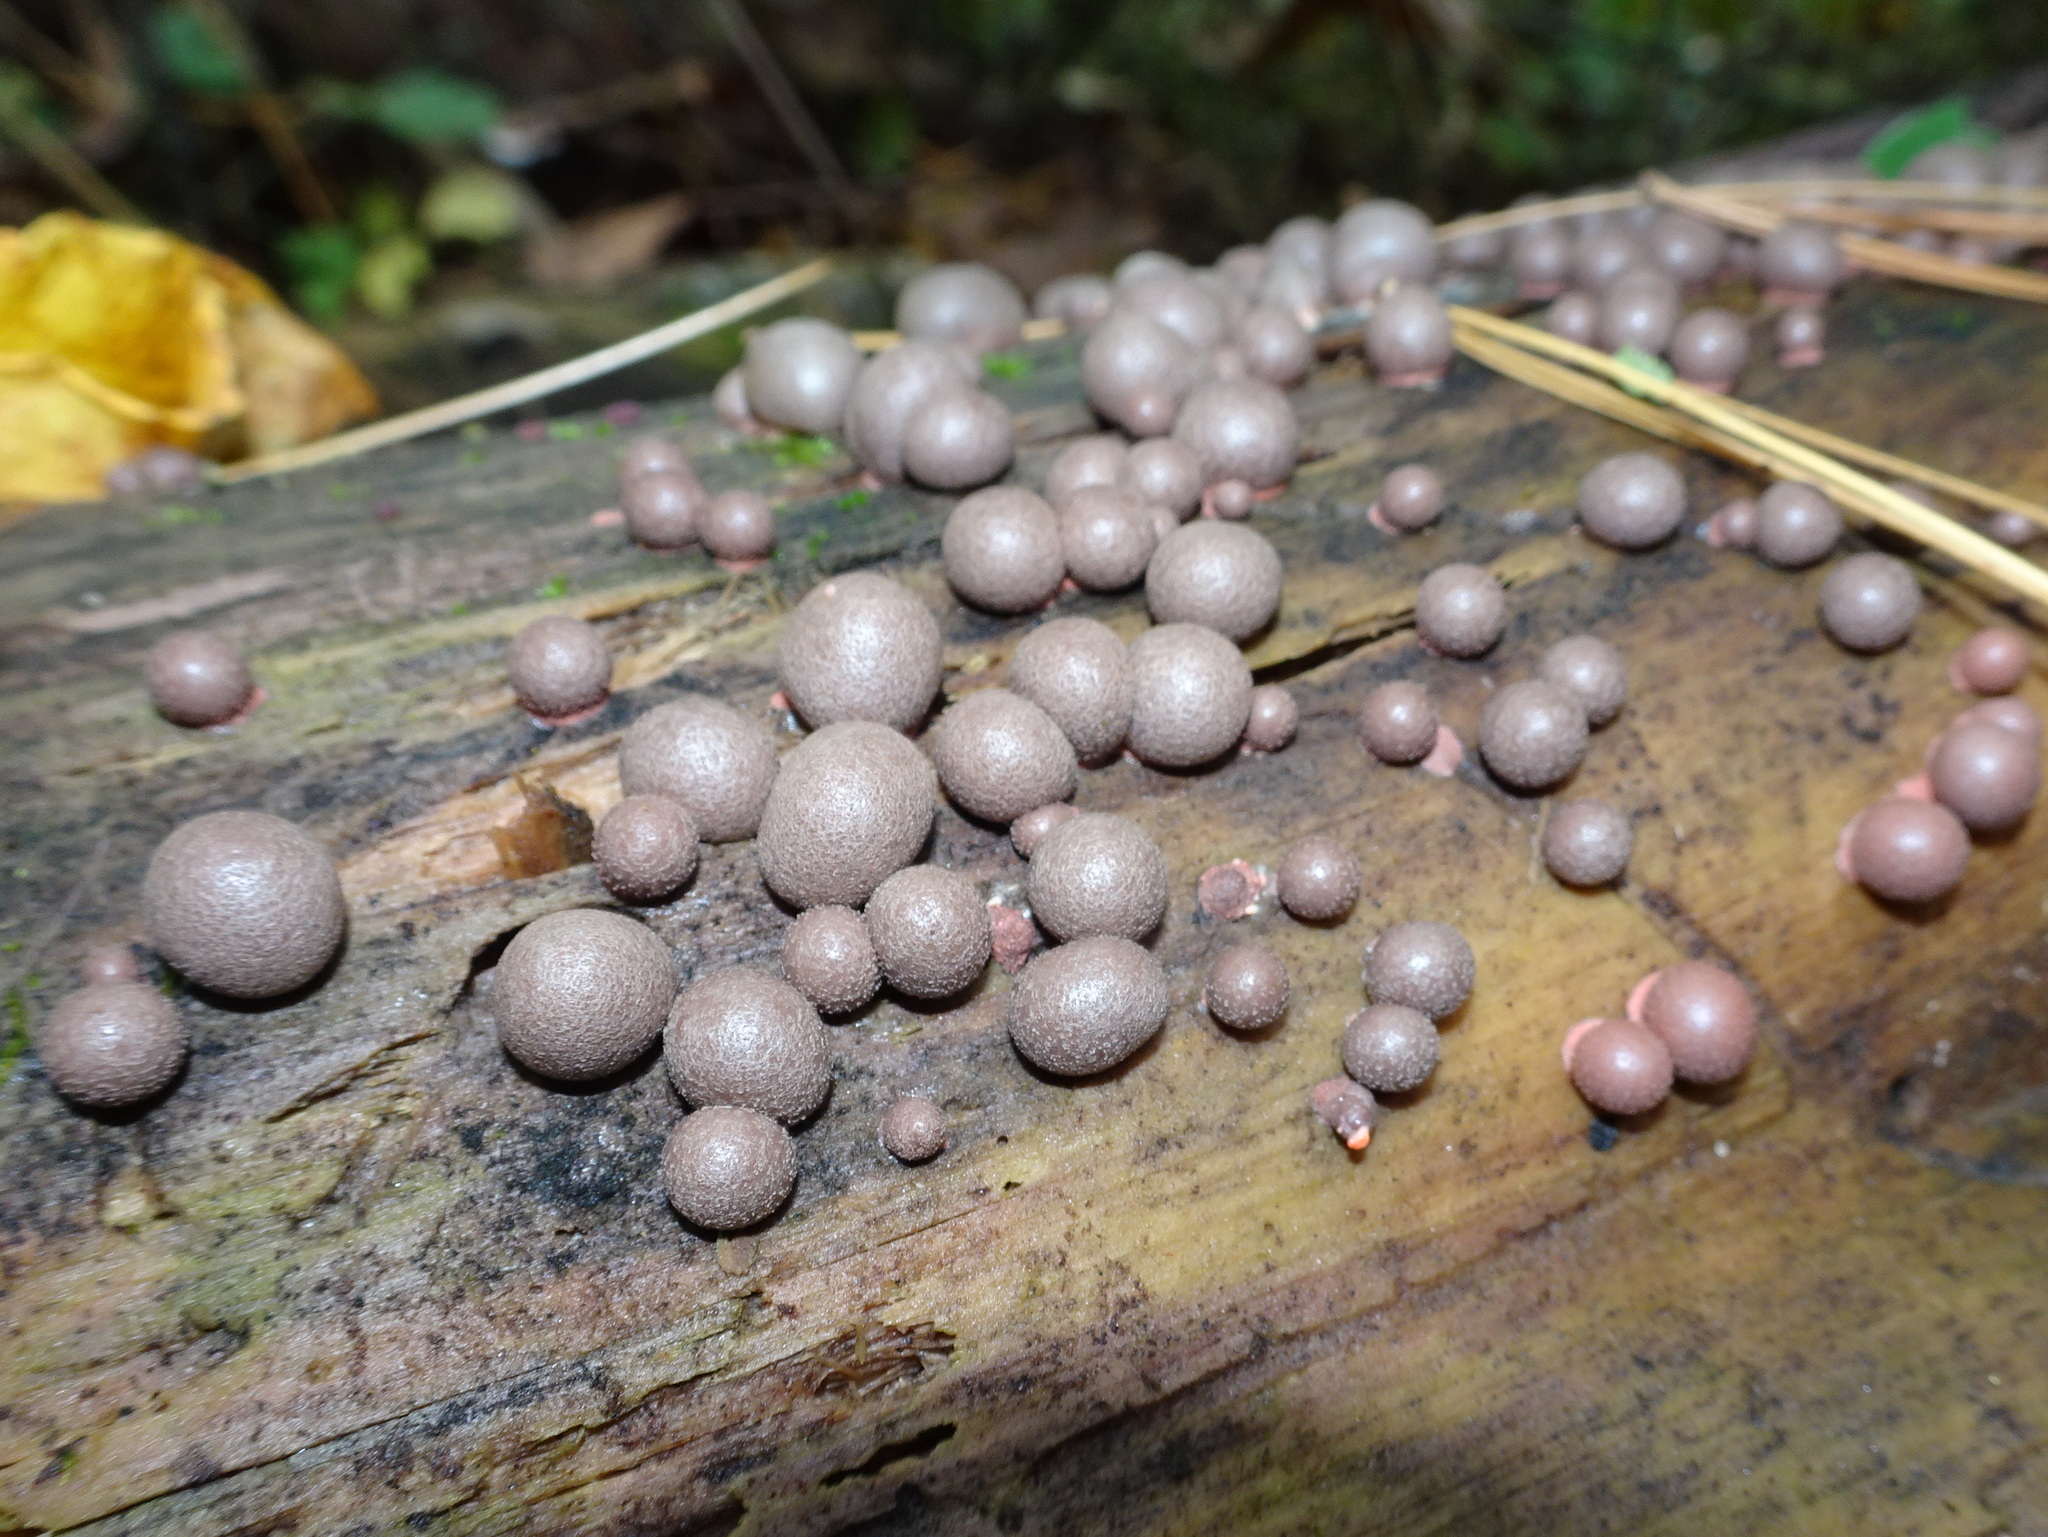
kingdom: Protozoa
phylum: Mycetozoa
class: Myxomycetes
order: Cribrariales
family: Tubiferaceae
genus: Lycogala
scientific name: Lycogala epidendrum
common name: Wolf's milk
